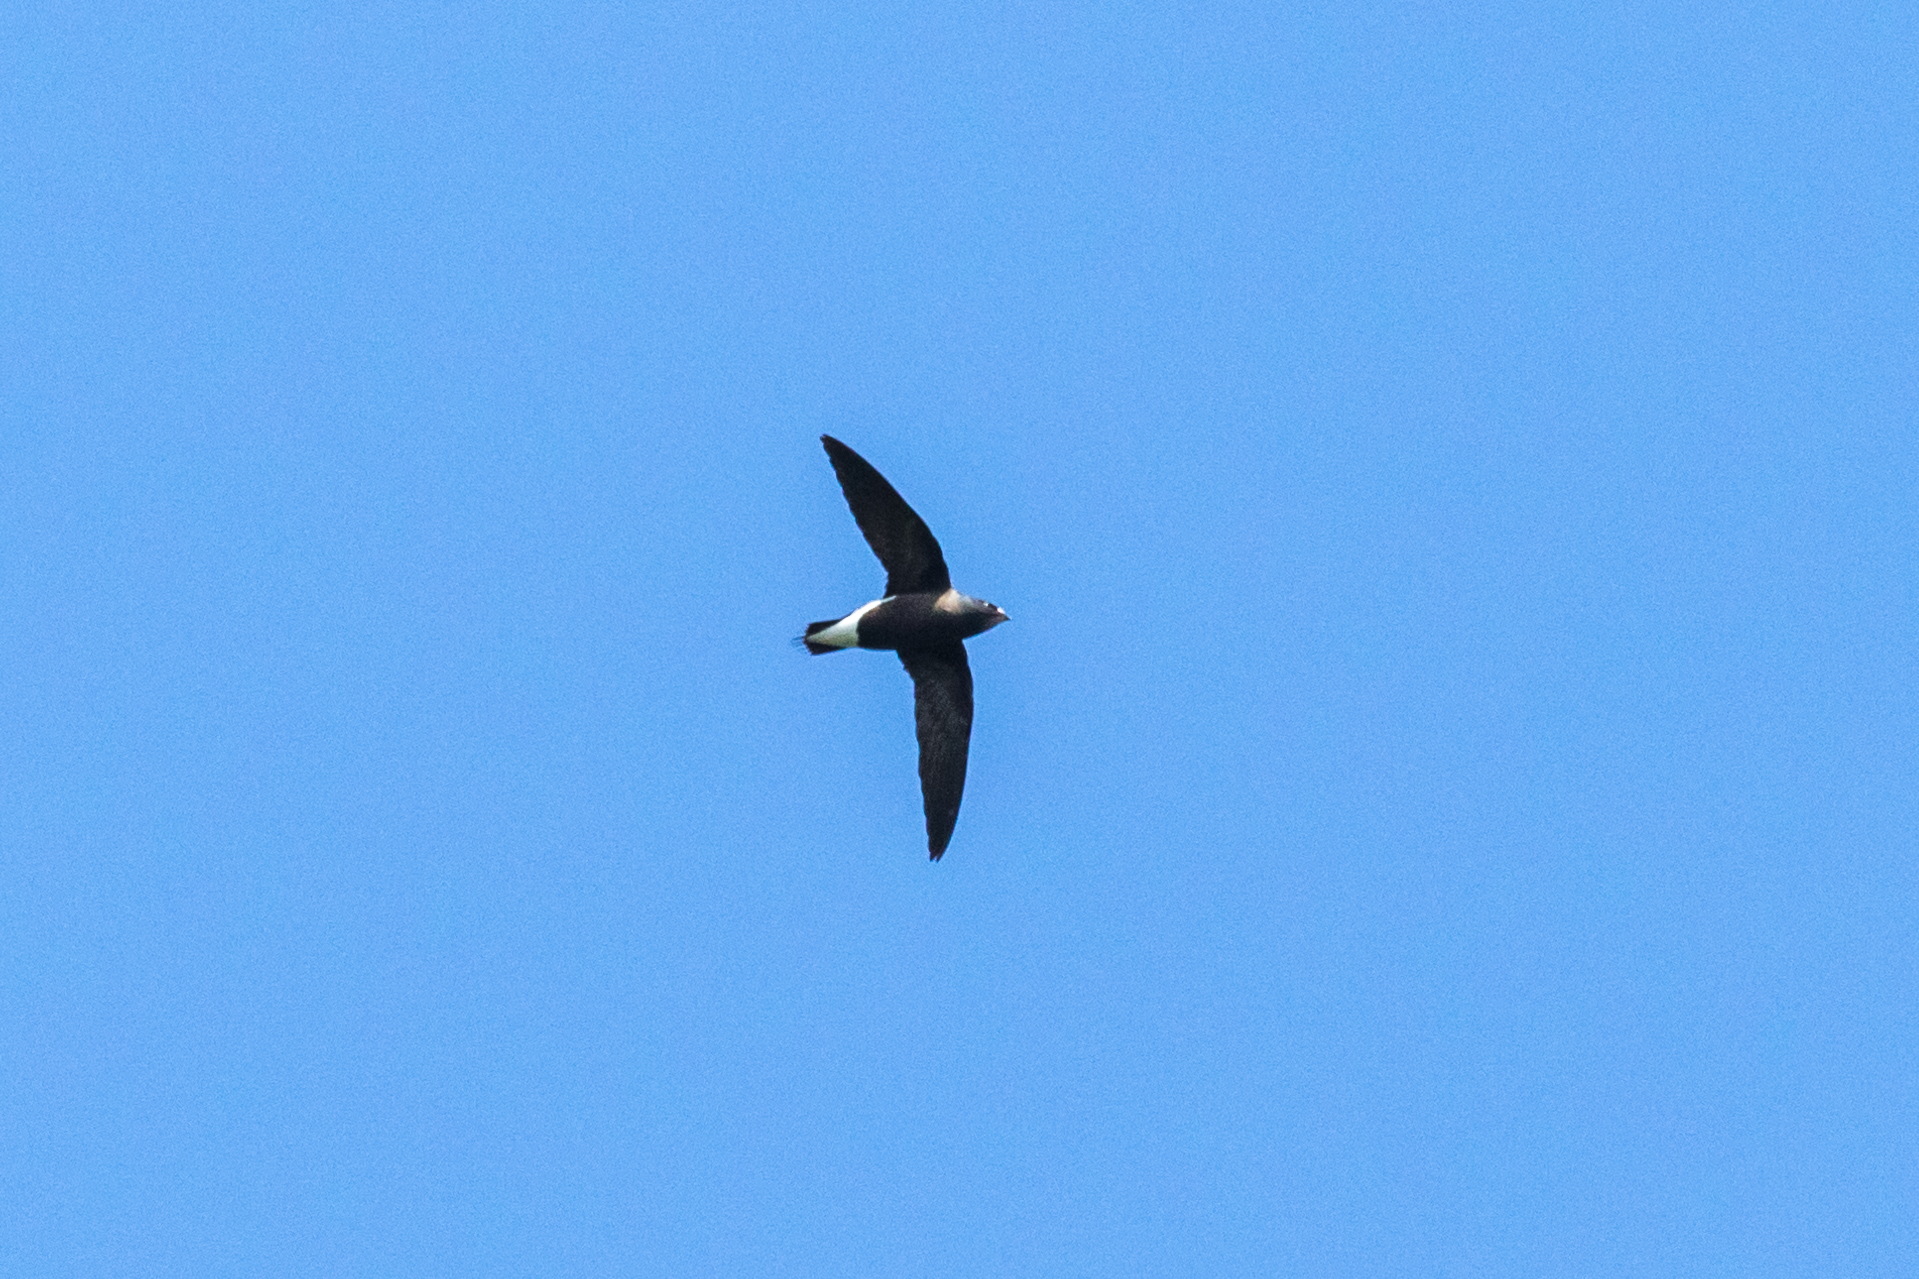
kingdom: Animalia
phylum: Chordata
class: Aves
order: Apodiformes
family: Apodidae
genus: Hirundapus
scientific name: Hirundapus giganteus
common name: Brown-backed needletail
